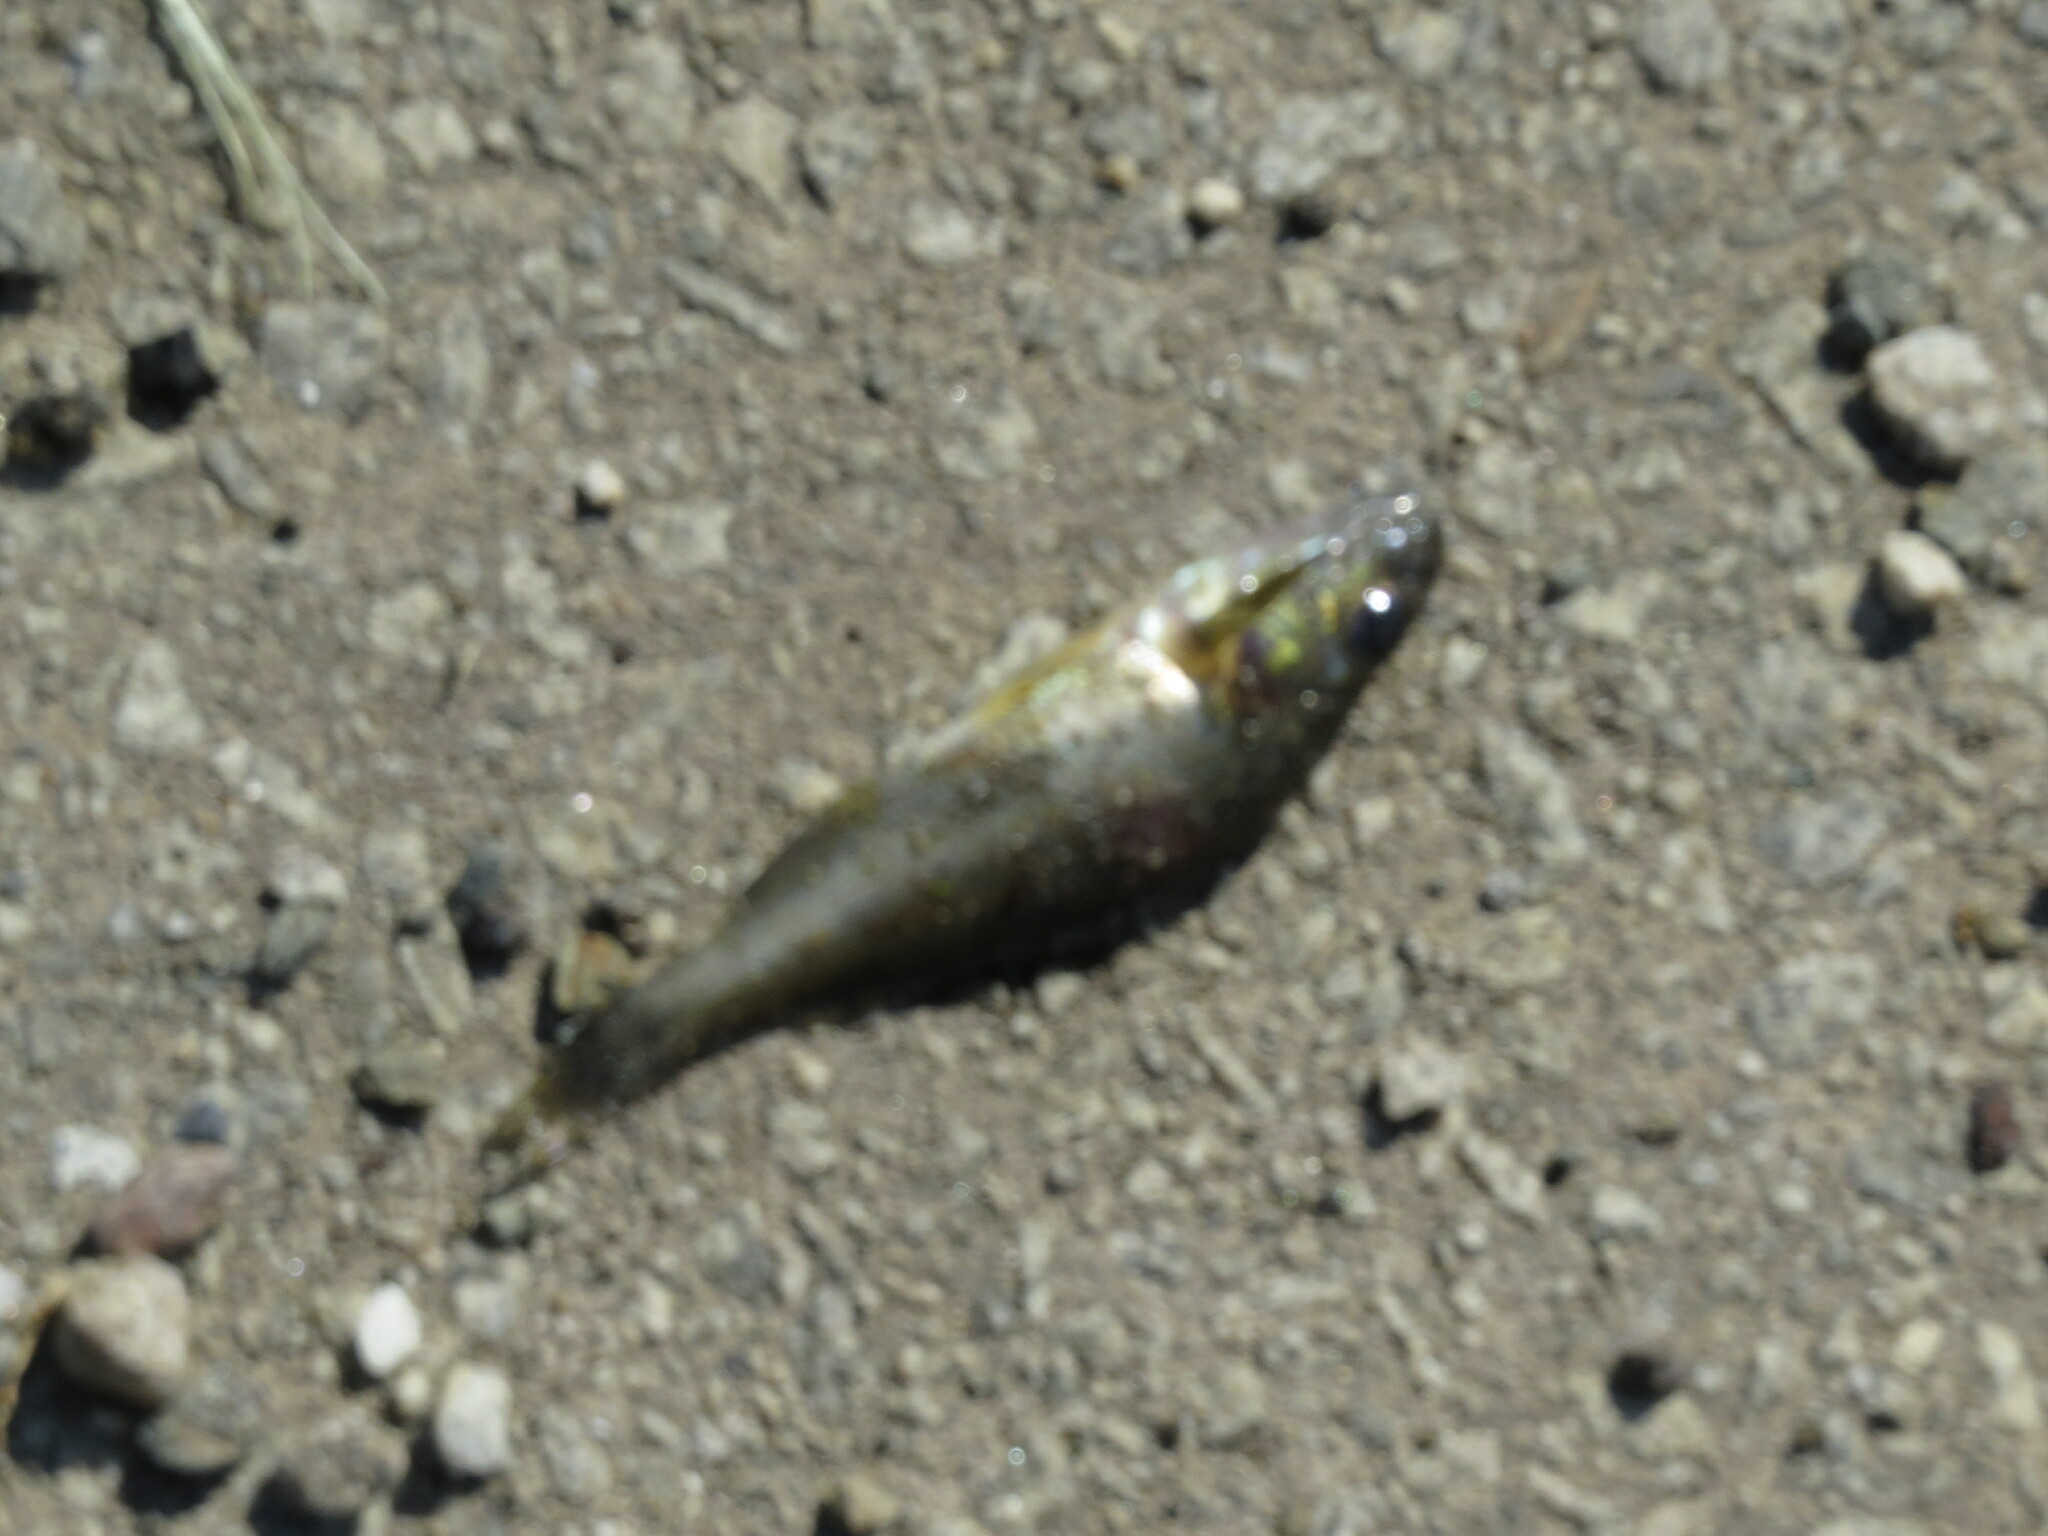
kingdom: Animalia
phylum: Chordata
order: Perciformes
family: Percidae
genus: Perca
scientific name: Perca fluviatilis
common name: Perch
